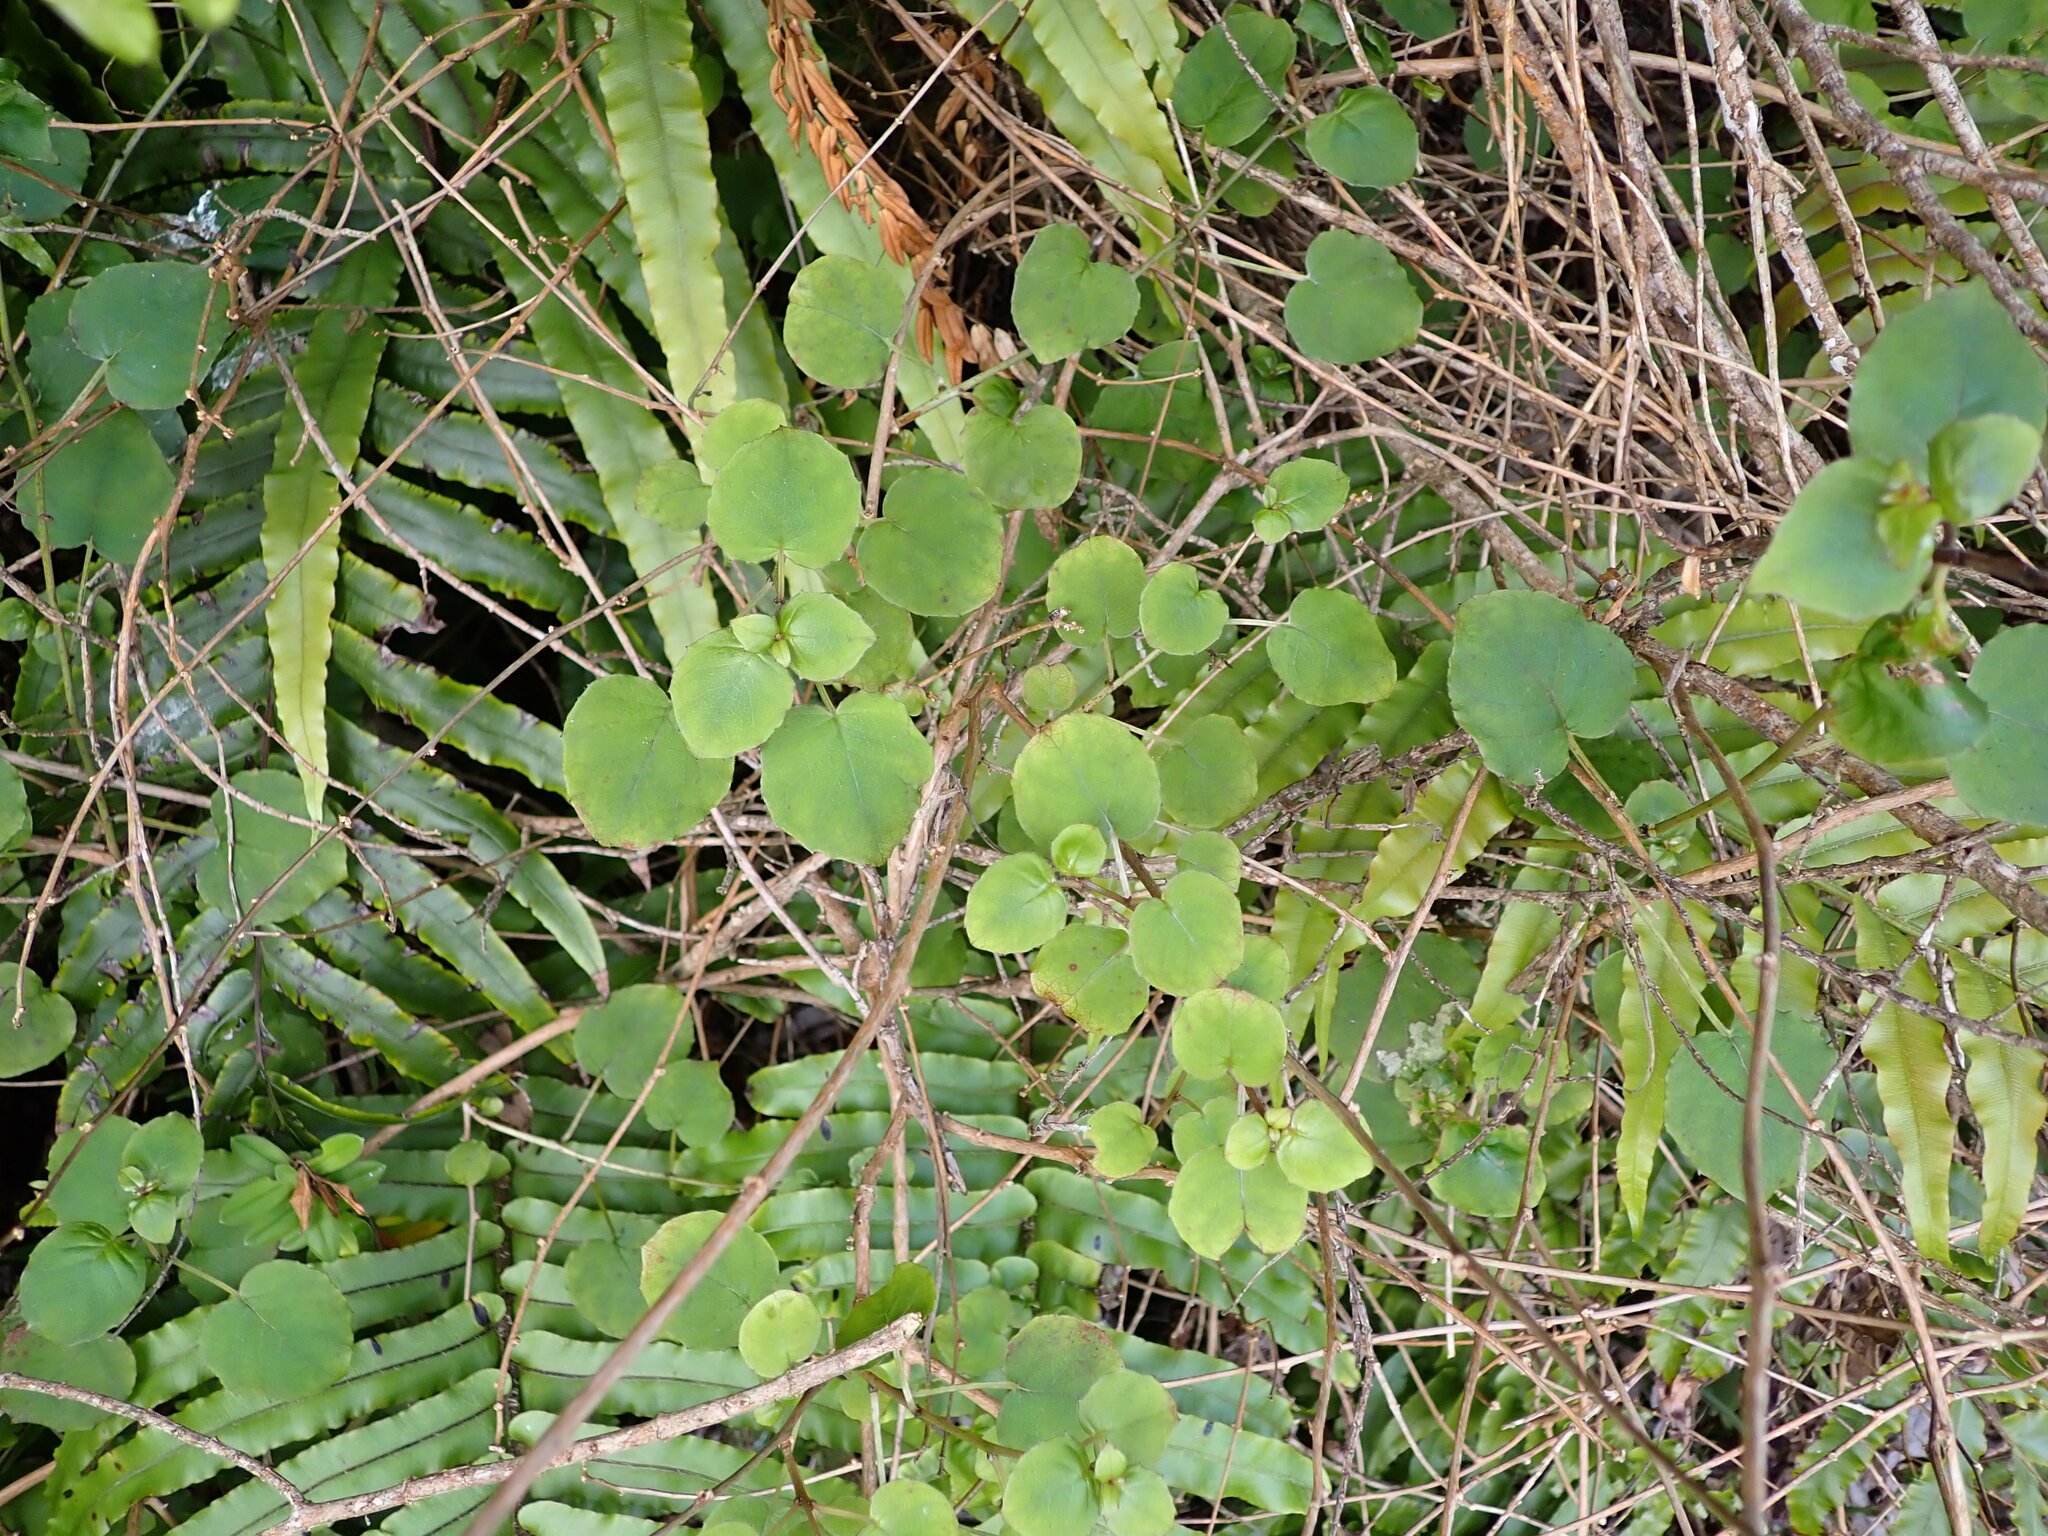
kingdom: Plantae
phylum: Tracheophyta
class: Magnoliopsida
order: Myrtales
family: Onagraceae
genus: Fuchsia
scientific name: Fuchsia perscandens
